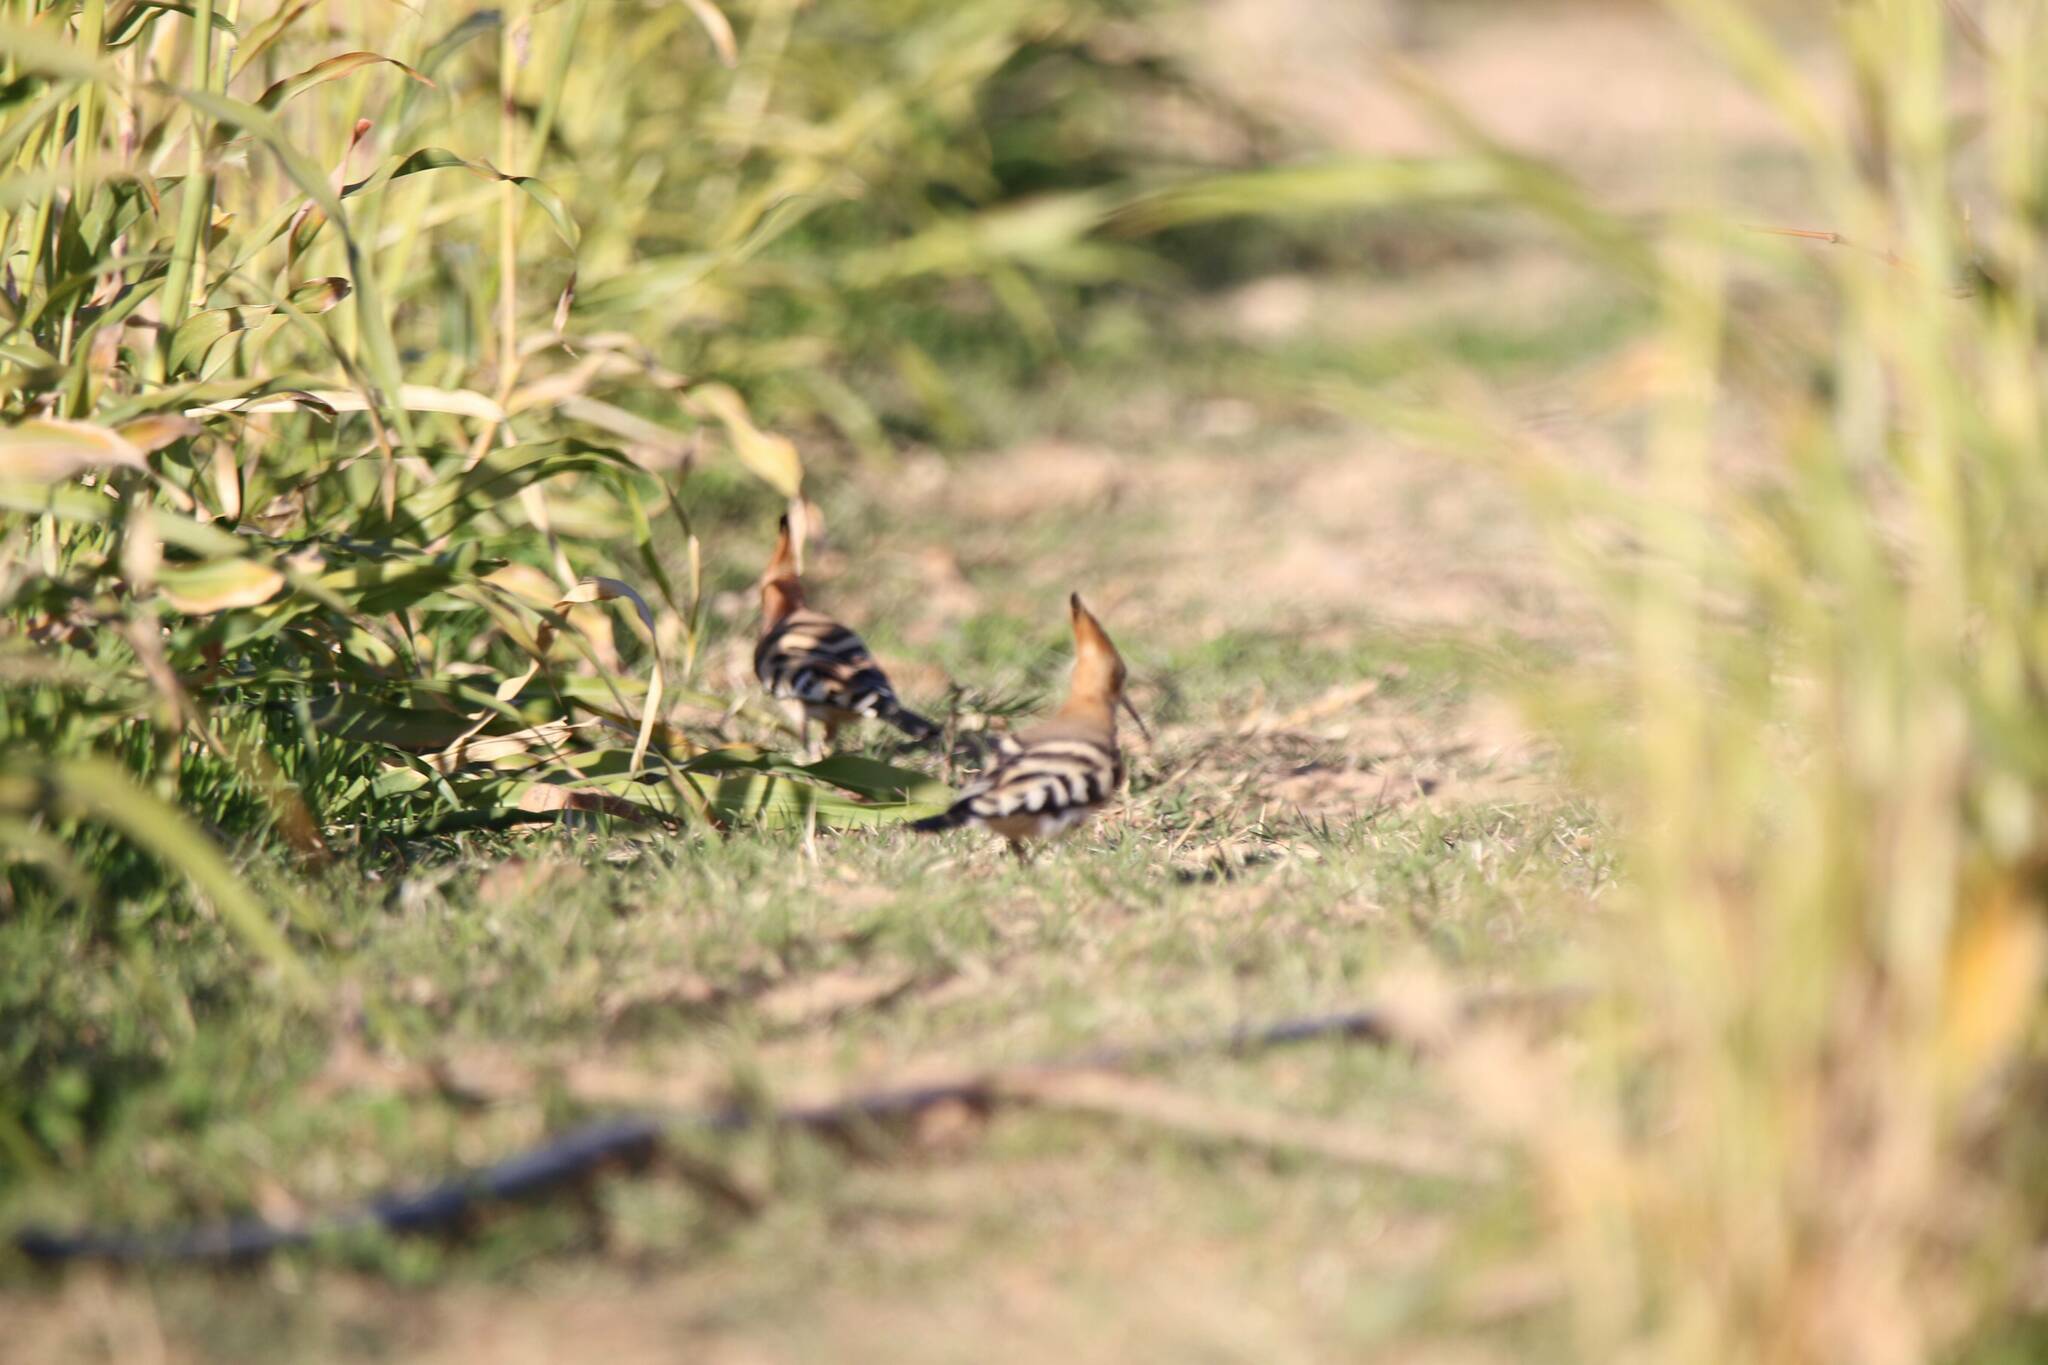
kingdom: Animalia
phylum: Chordata
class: Aves
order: Bucerotiformes
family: Upupidae
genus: Upupa
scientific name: Upupa epops
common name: Eurasian hoopoe
